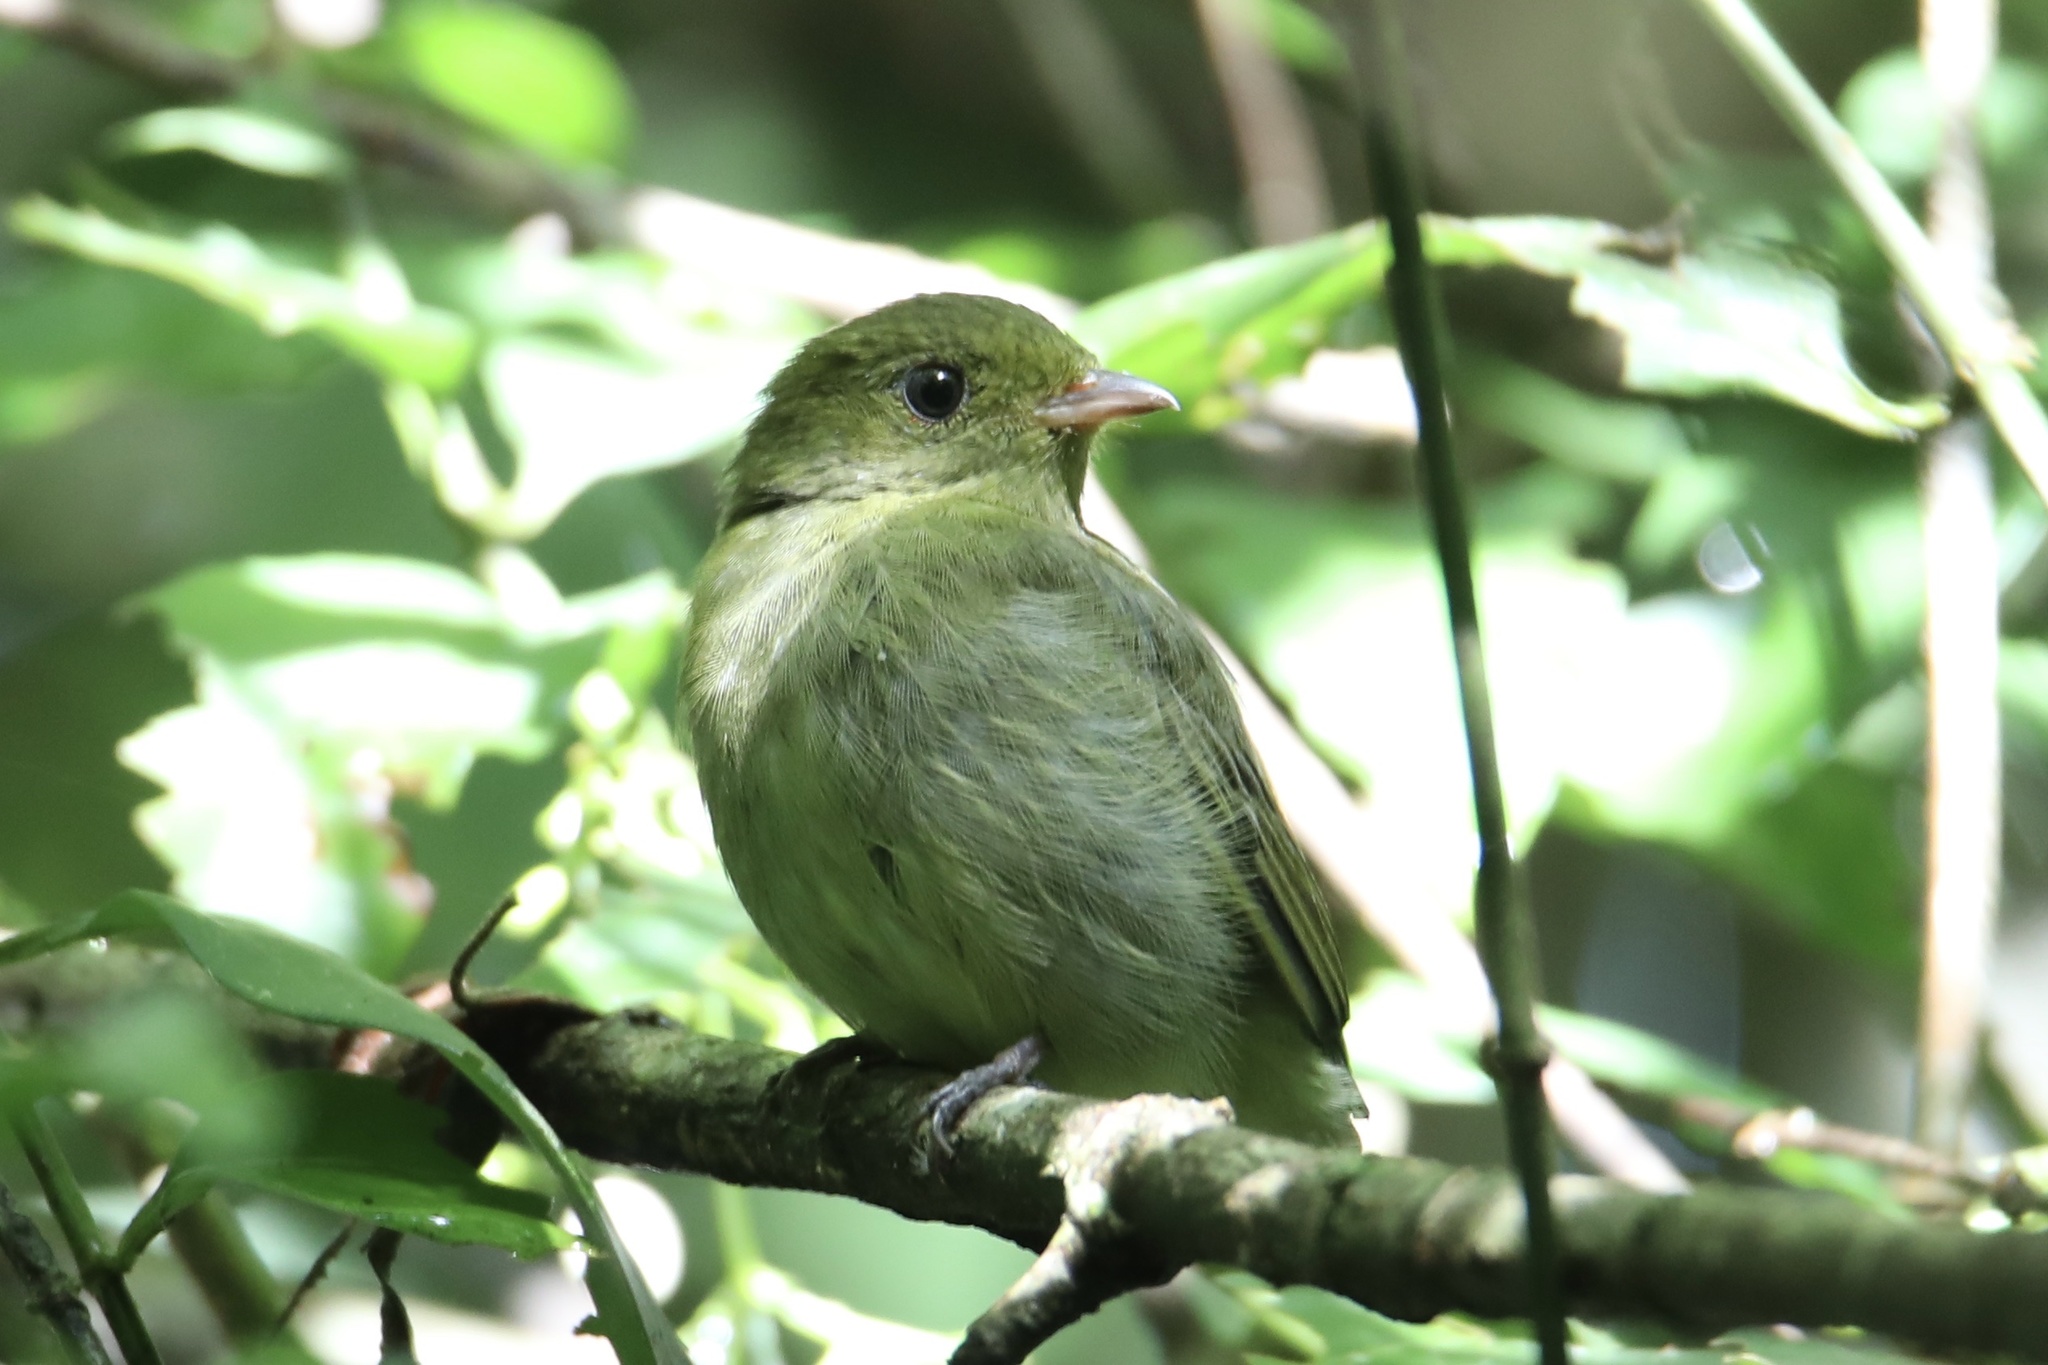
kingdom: Animalia
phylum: Chordata
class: Aves
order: Passeriformes
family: Pipridae
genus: Pipra
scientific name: Pipra mentalis
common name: Red-capped manakin
